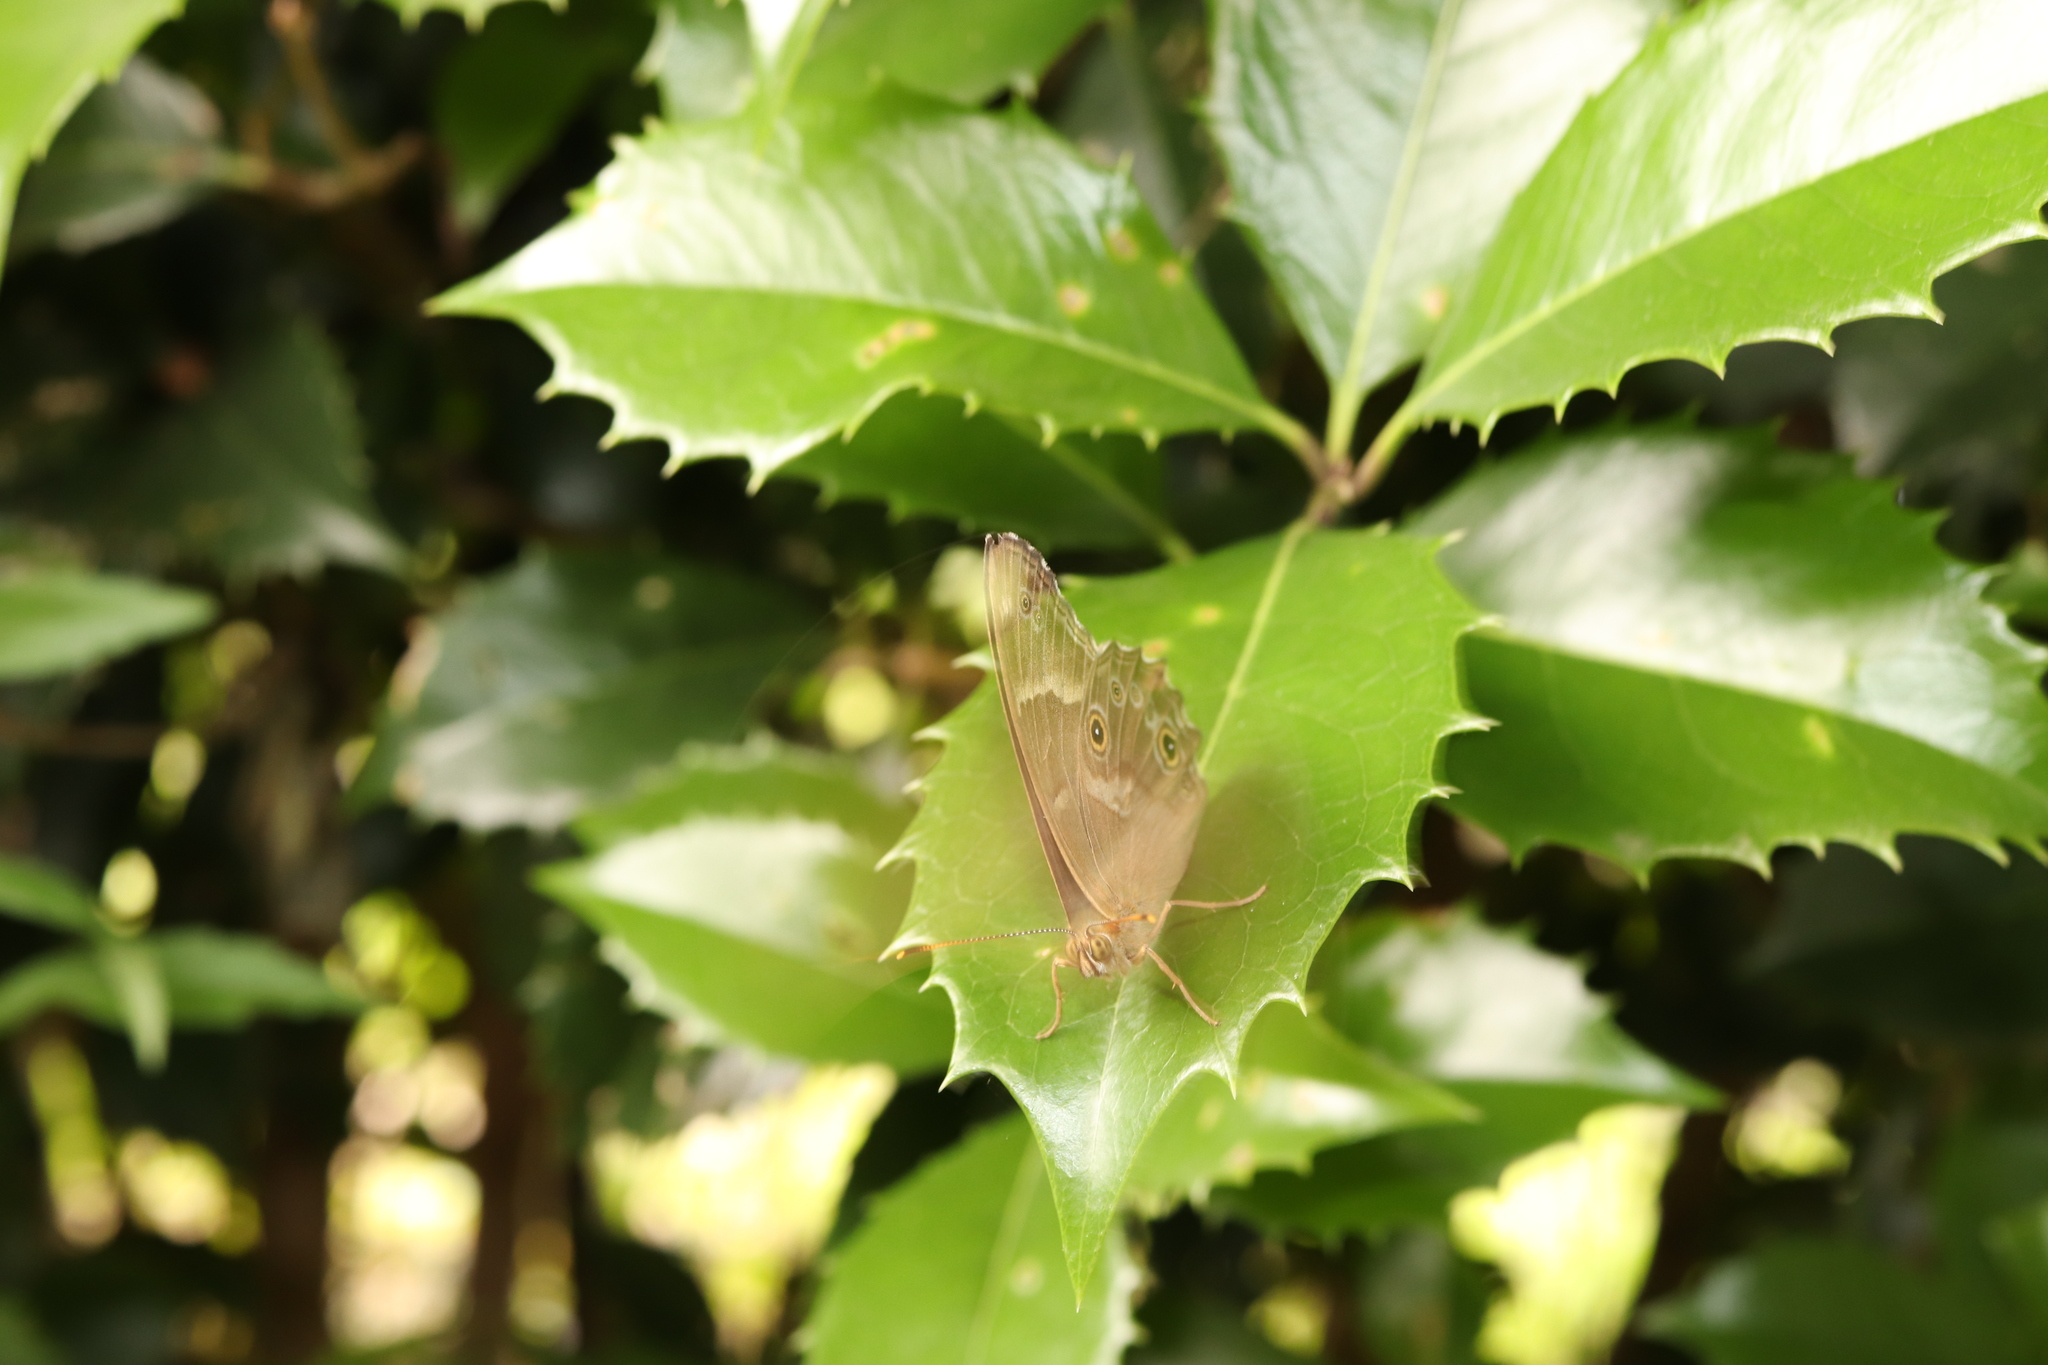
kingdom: Animalia
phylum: Arthropoda
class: Insecta
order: Lepidoptera
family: Nymphalidae
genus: Lethe
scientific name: Lethe sicelis
